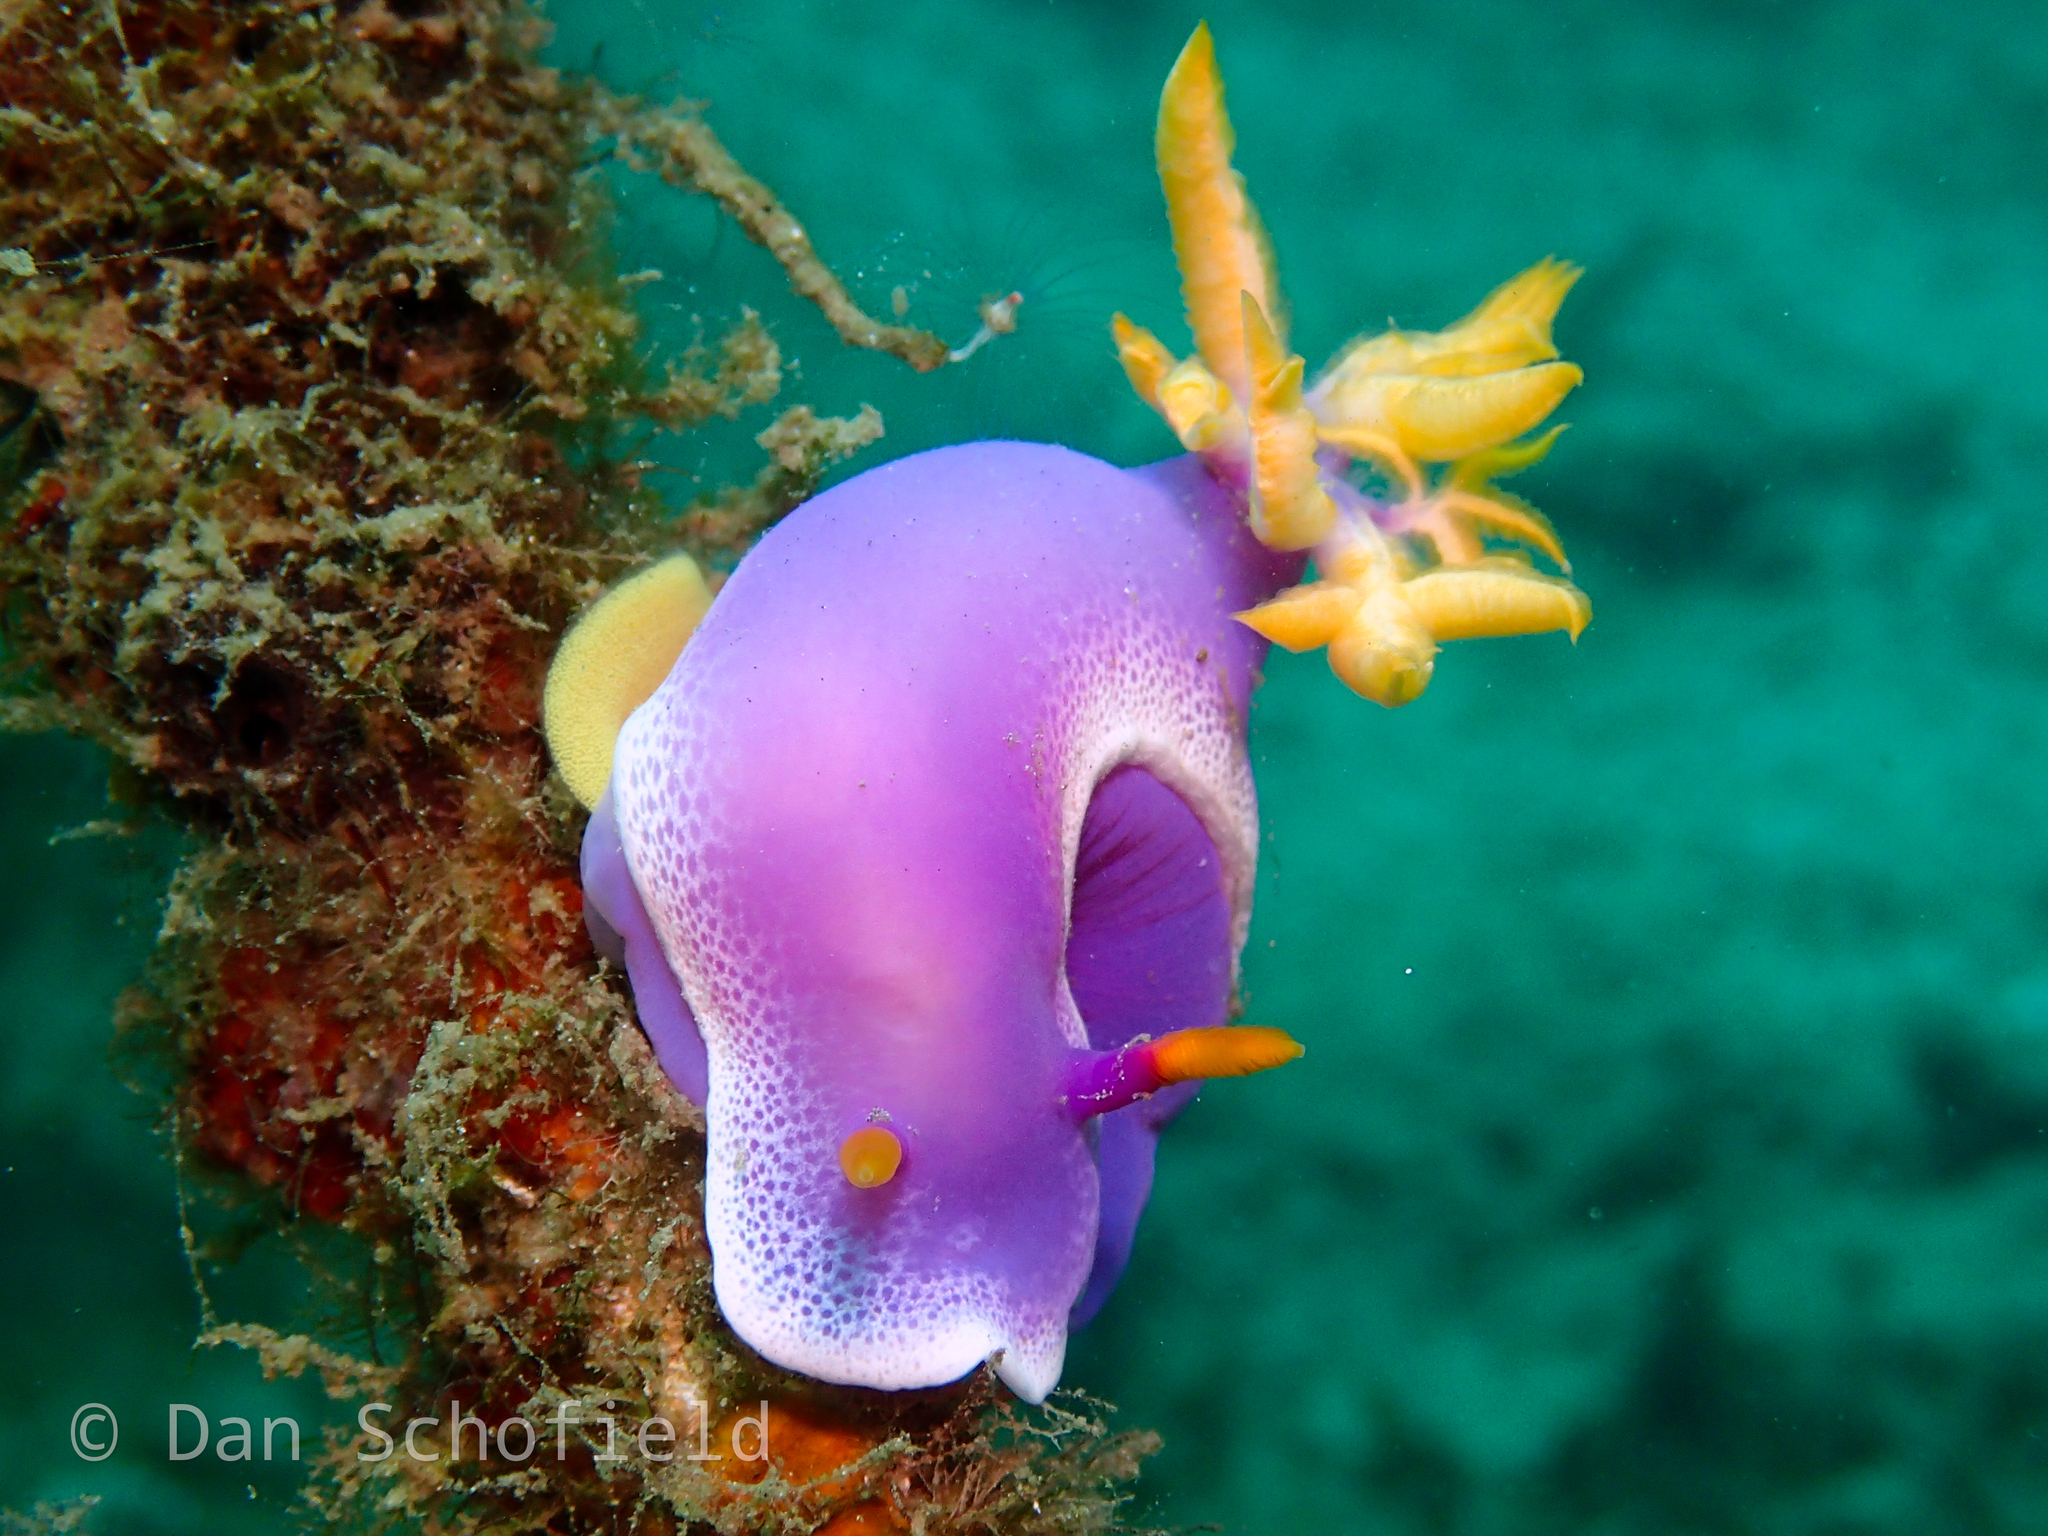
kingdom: Animalia
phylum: Mollusca
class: Gastropoda
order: Nudibranchia
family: Chromodorididae
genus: Hypselodoris
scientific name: Hypselodoris apolegma
